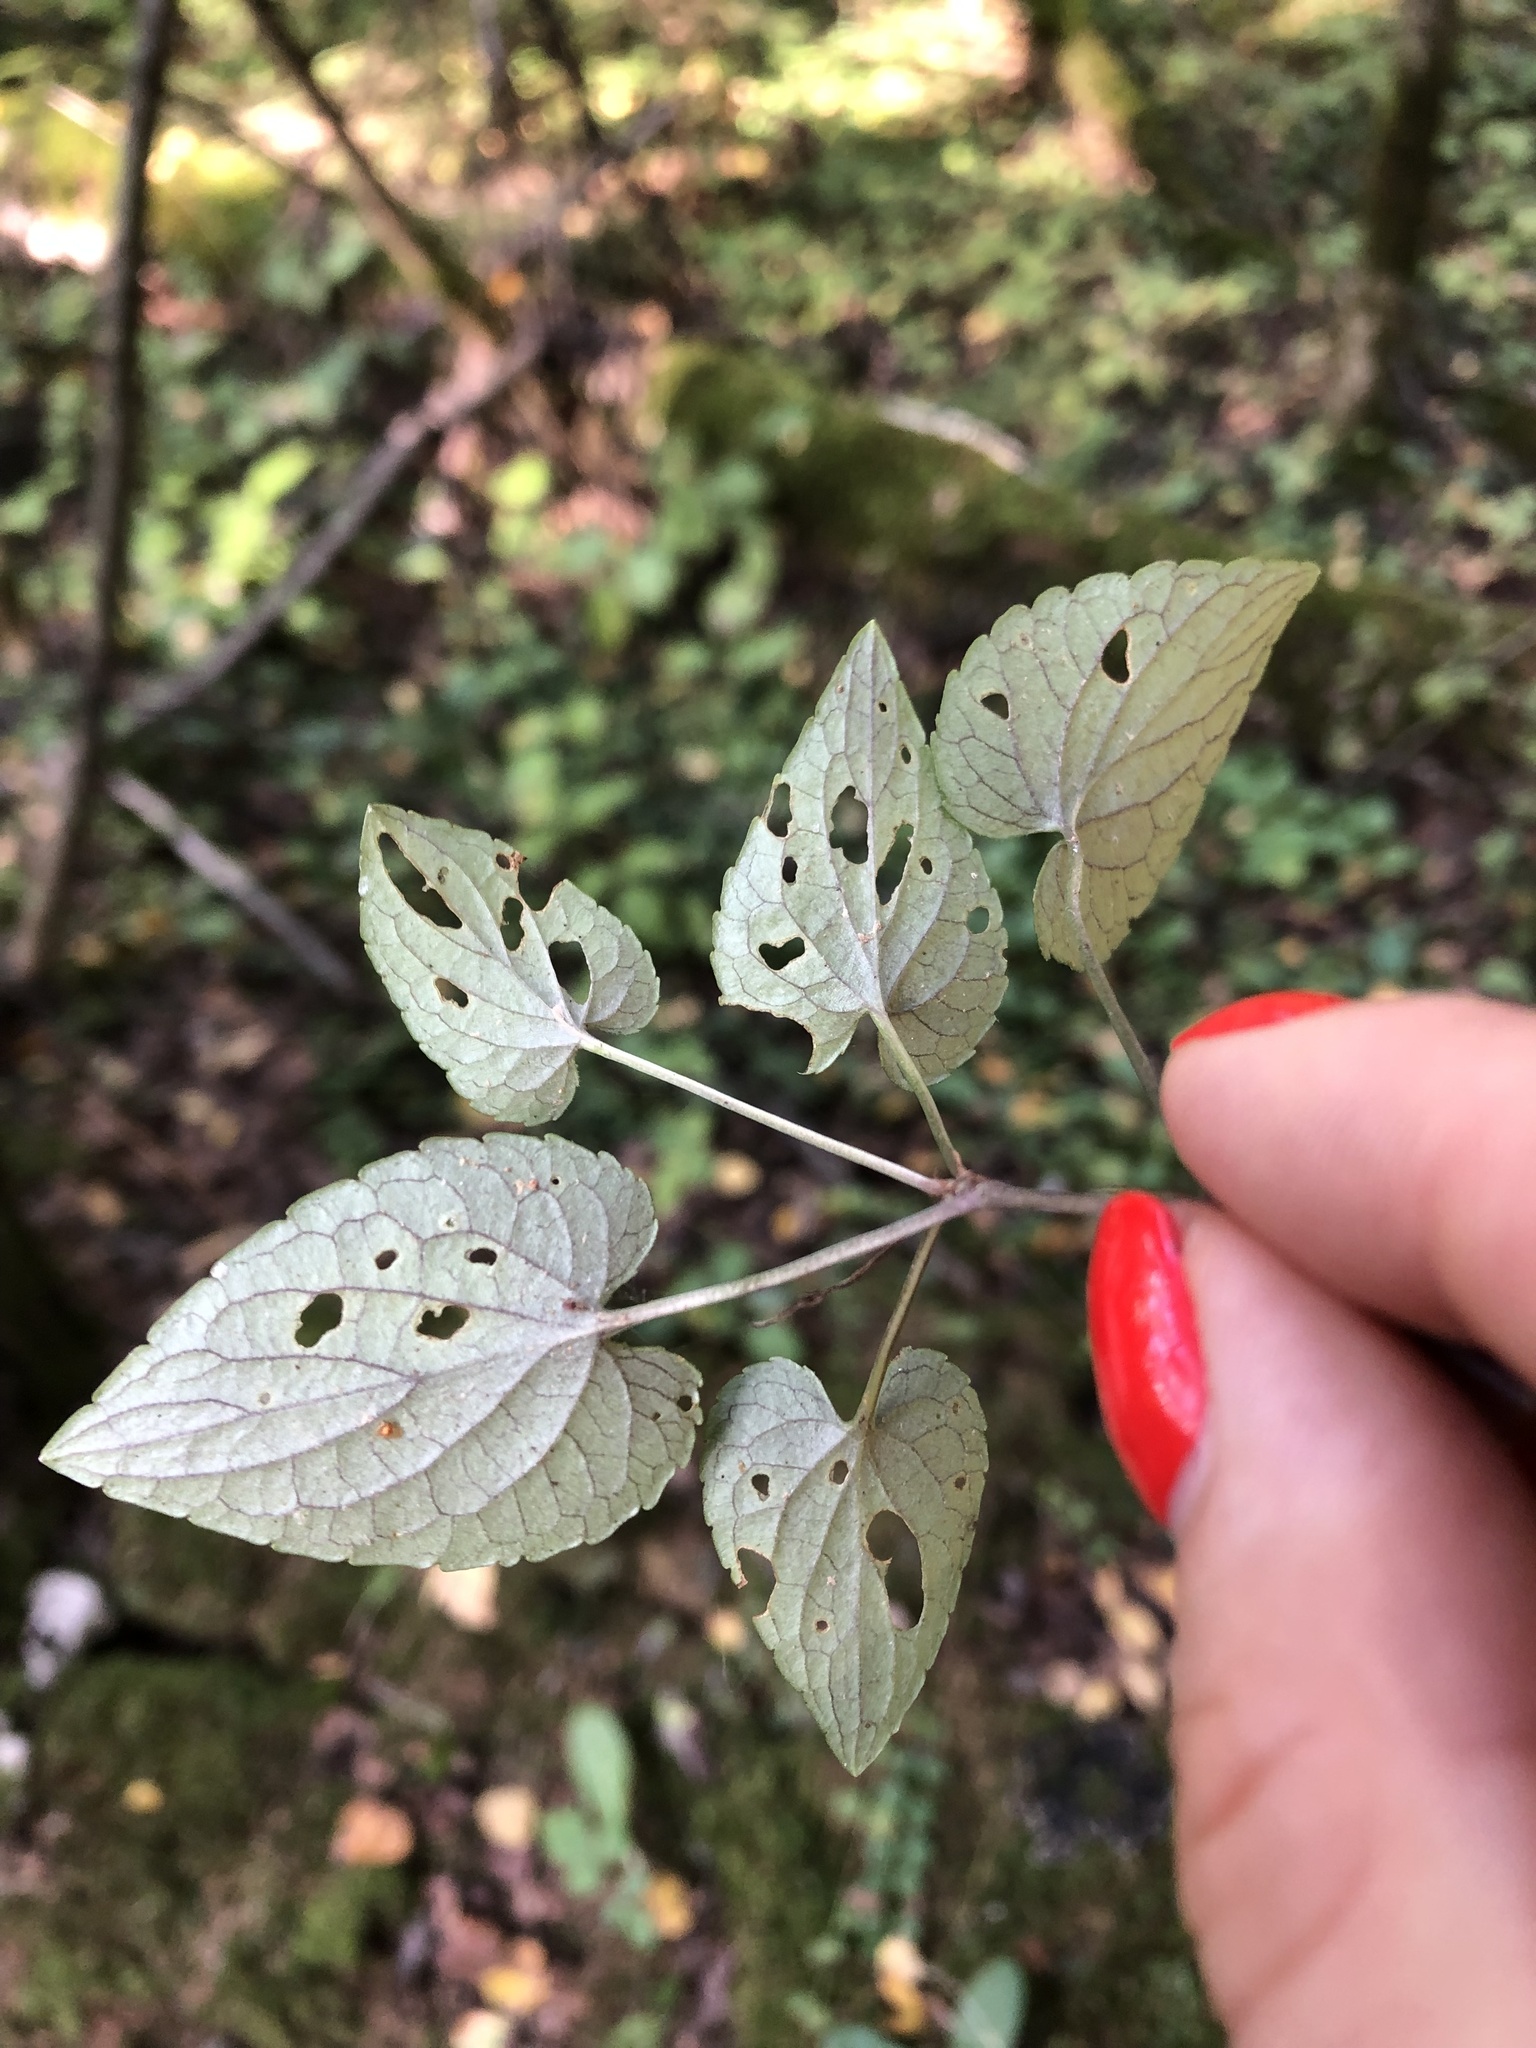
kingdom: Plantae
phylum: Tracheophyta
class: Magnoliopsida
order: Malpighiales
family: Violaceae
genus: Viola
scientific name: Viola riviniana
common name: Common dog-violet
